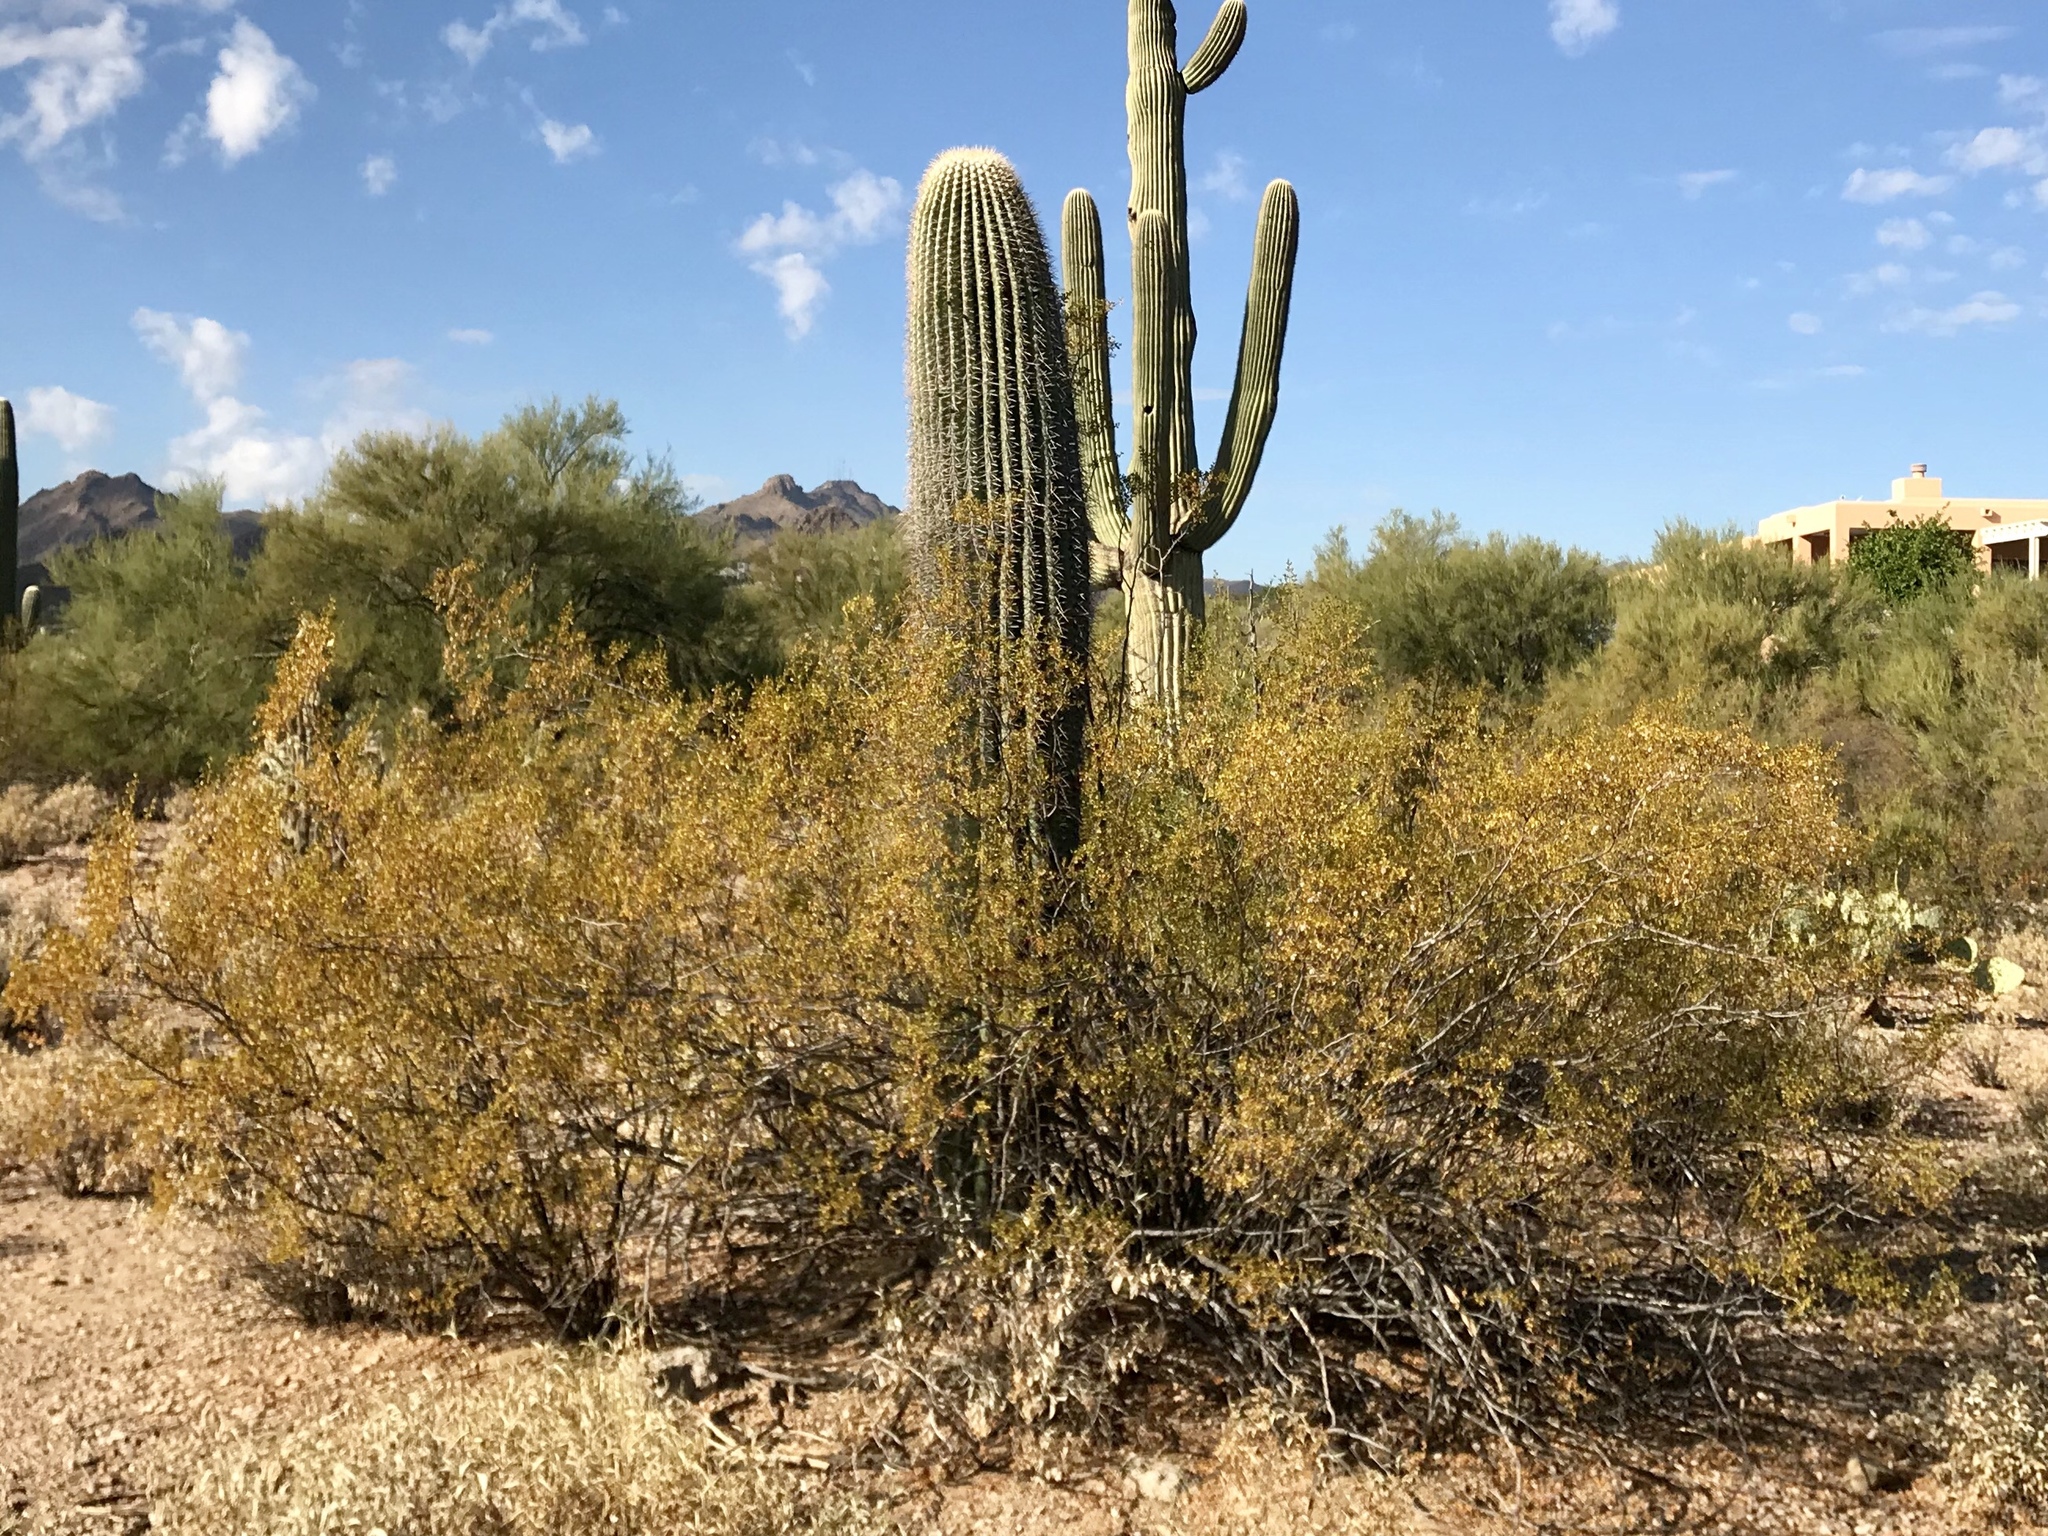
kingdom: Plantae
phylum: Tracheophyta
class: Magnoliopsida
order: Caryophyllales
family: Cactaceae
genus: Carnegiea
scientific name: Carnegiea gigantea
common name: Saguaro
